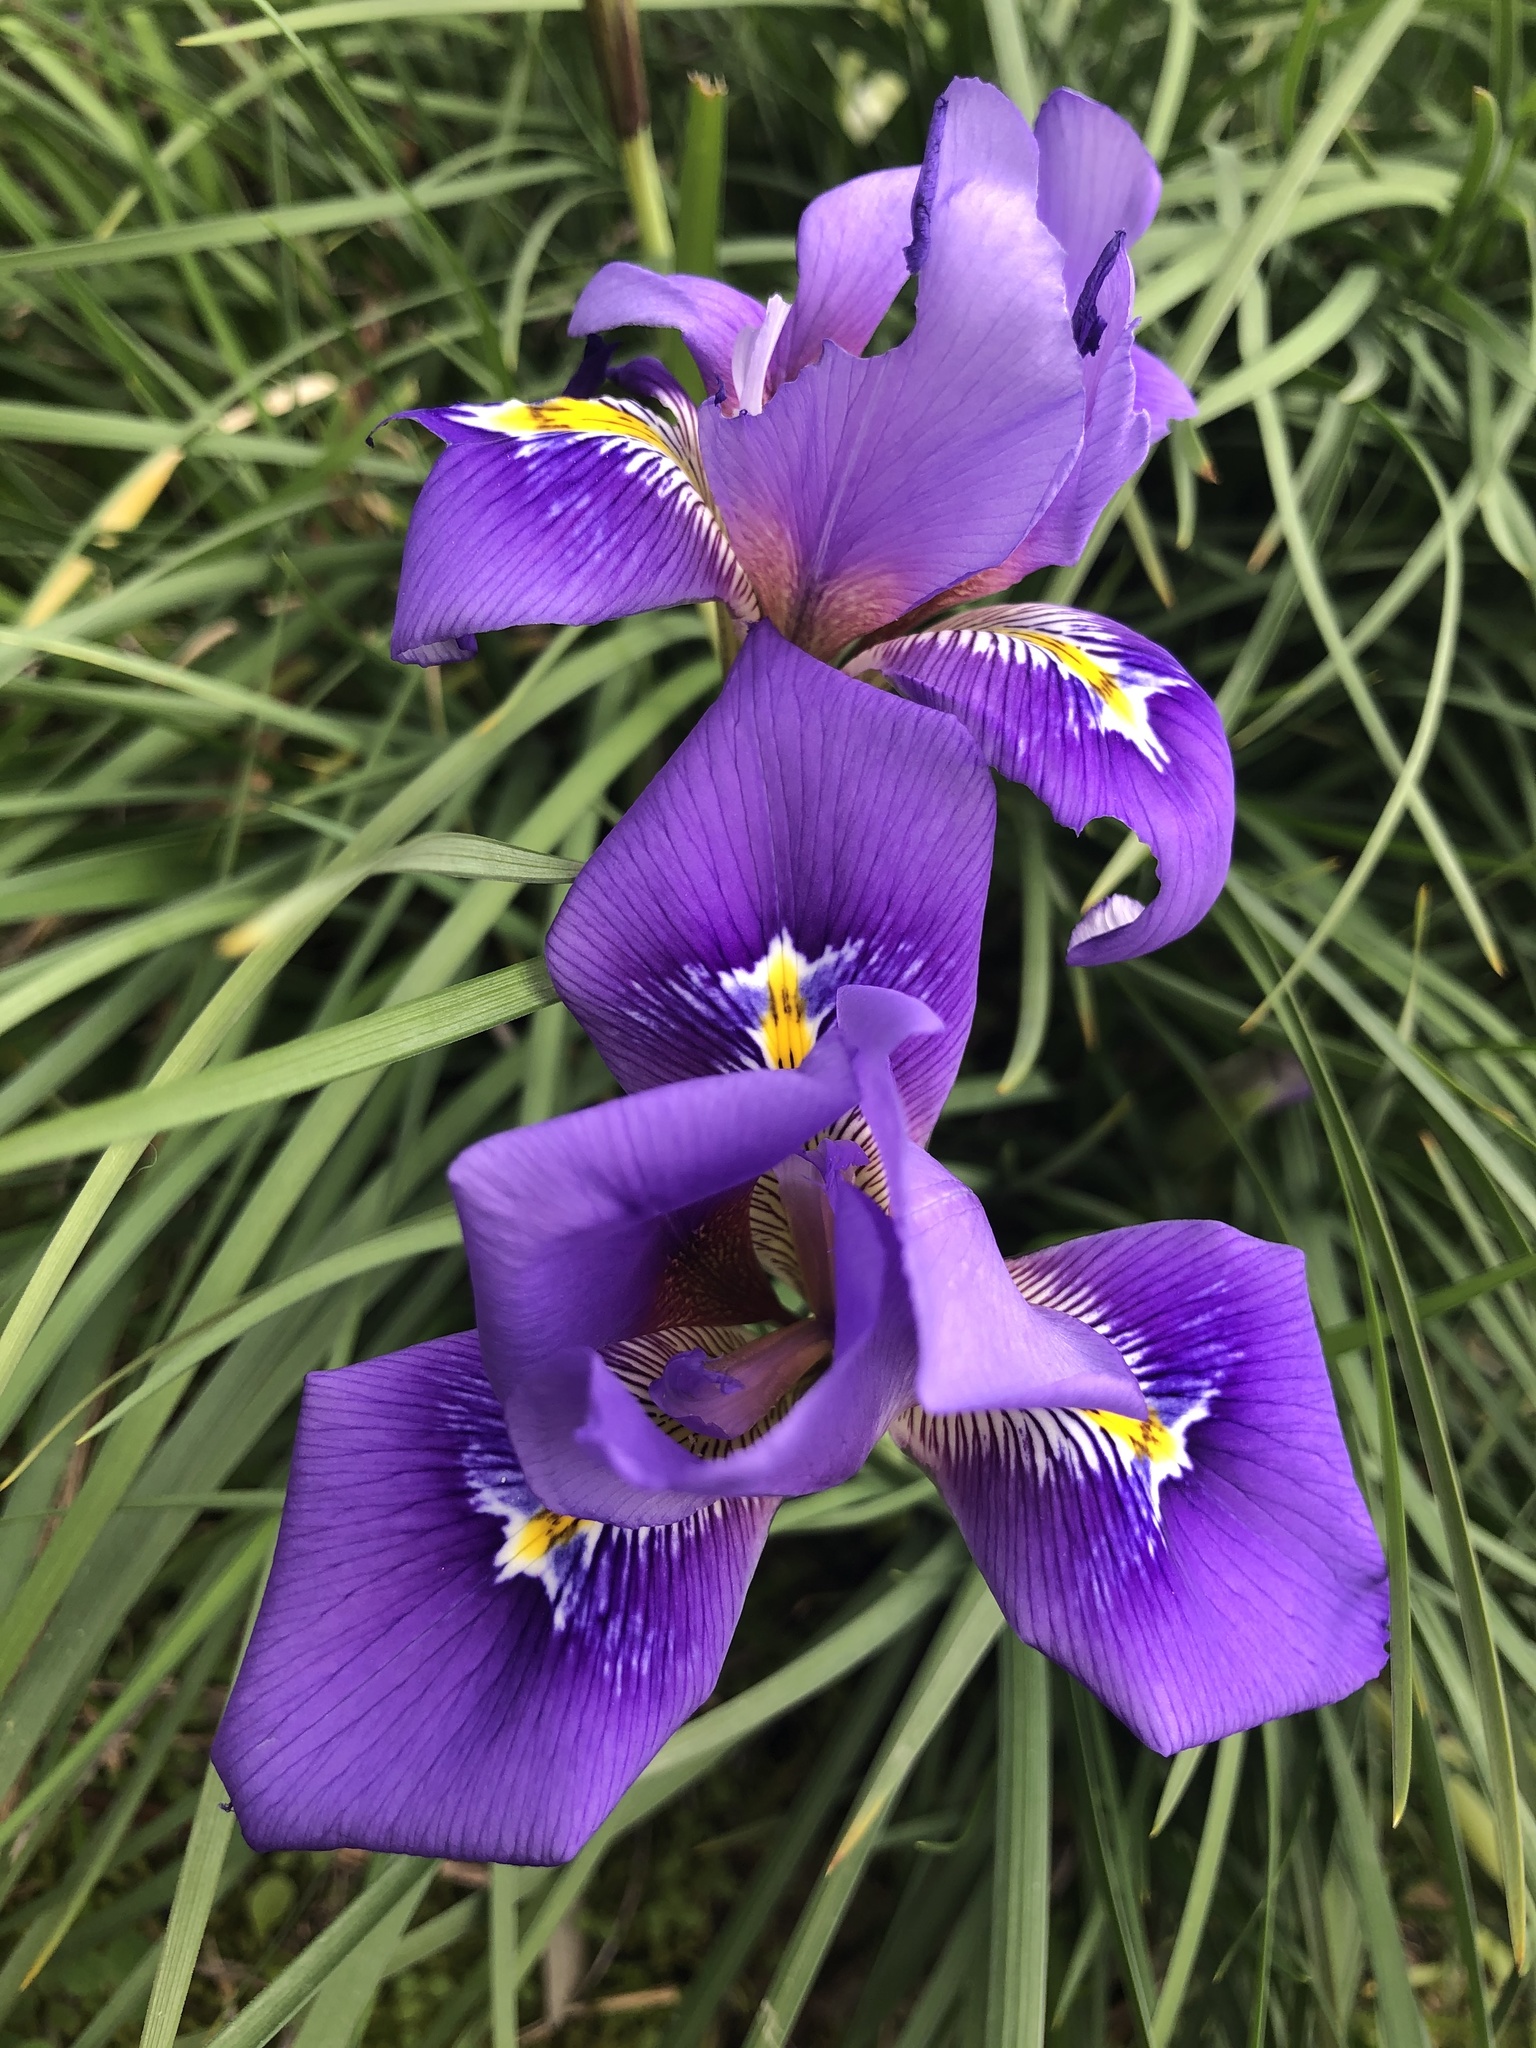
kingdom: Plantae
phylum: Tracheophyta
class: Liliopsida
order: Asparagales
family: Iridaceae
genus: Iris
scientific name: Iris unguicularis
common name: Algerian iris
